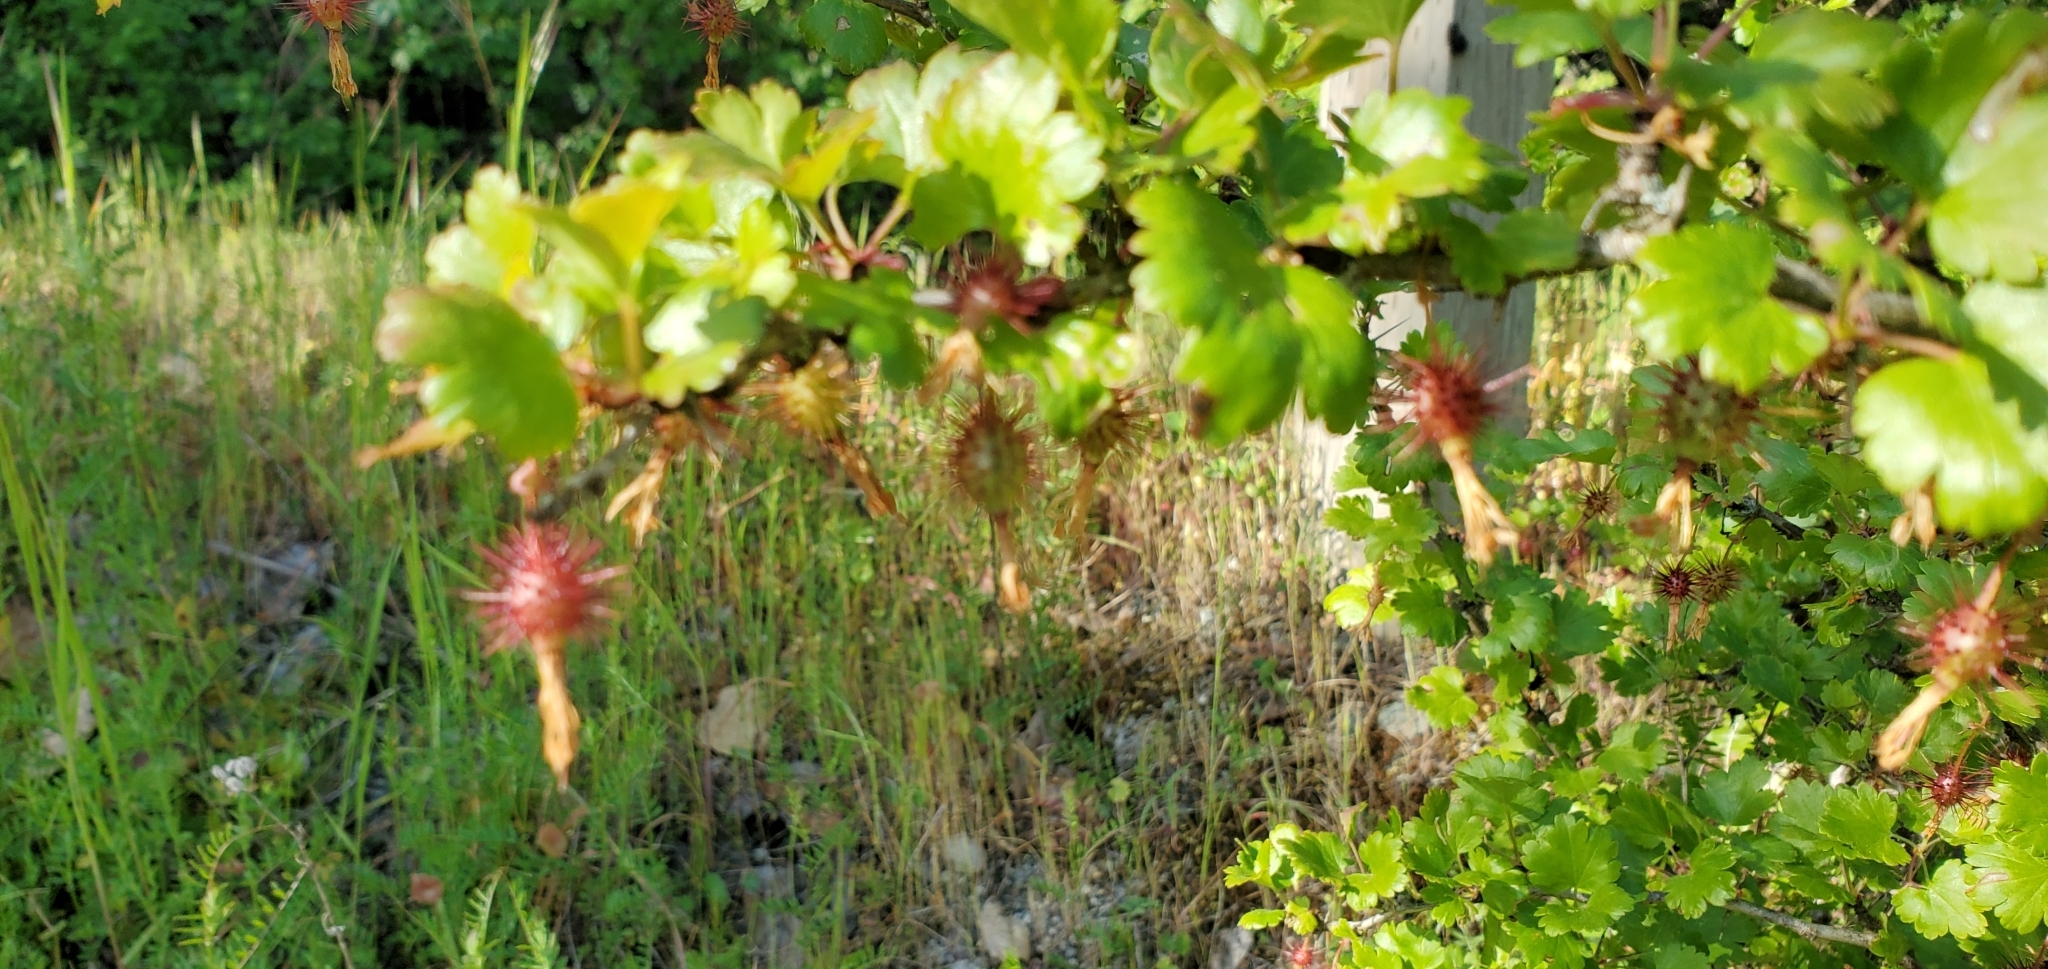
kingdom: Plantae
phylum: Tracheophyta
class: Magnoliopsida
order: Saxifragales
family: Grossulariaceae
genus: Ribes
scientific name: Ribes californicum
